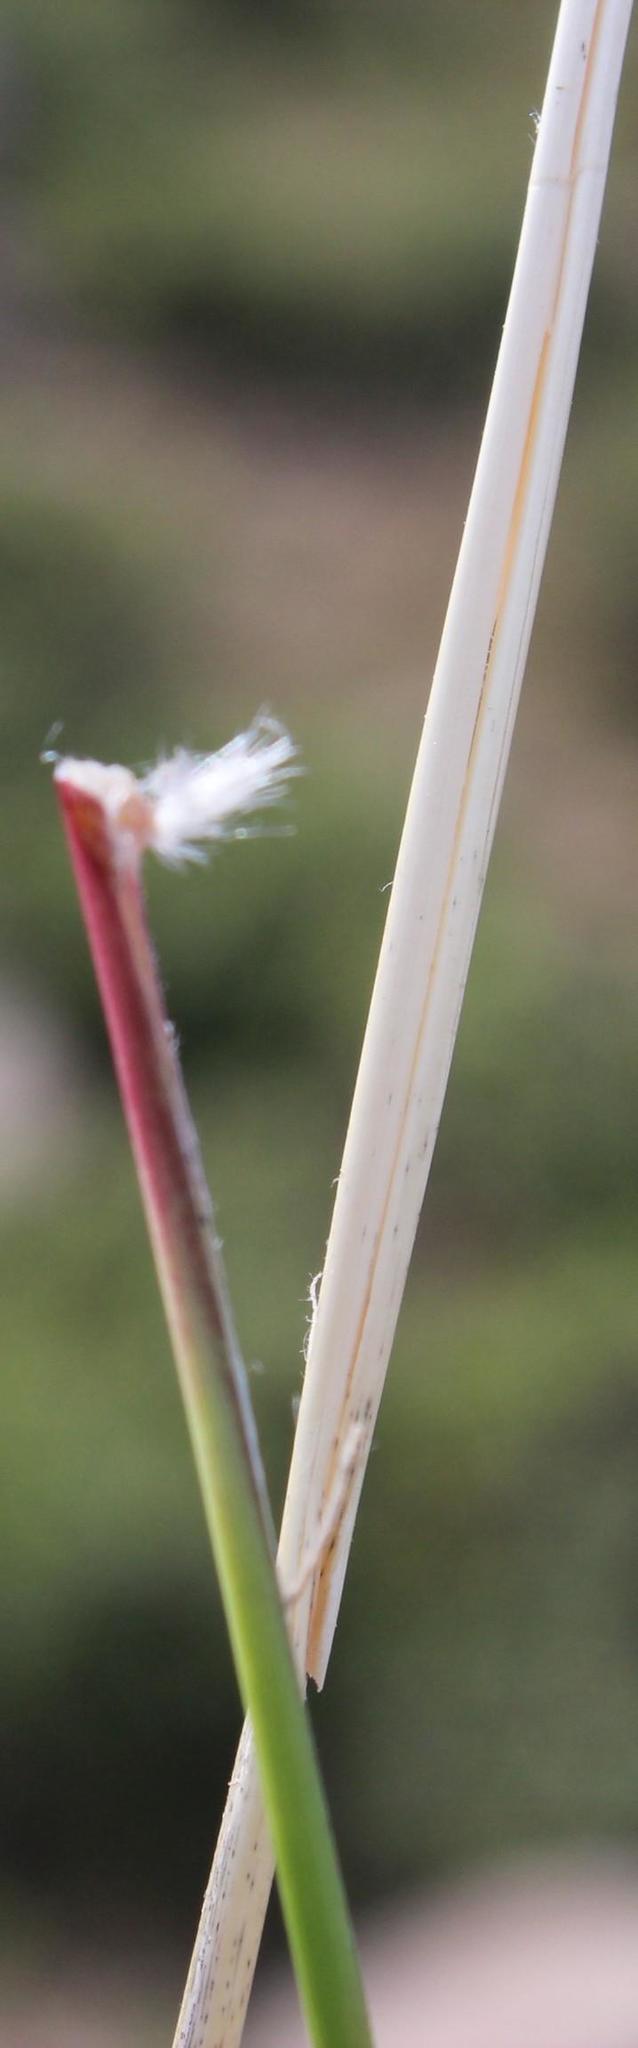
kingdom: Plantae
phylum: Tracheophyta
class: Liliopsida
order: Poales
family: Poaceae
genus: Tenaxia
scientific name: Tenaxia stricta
